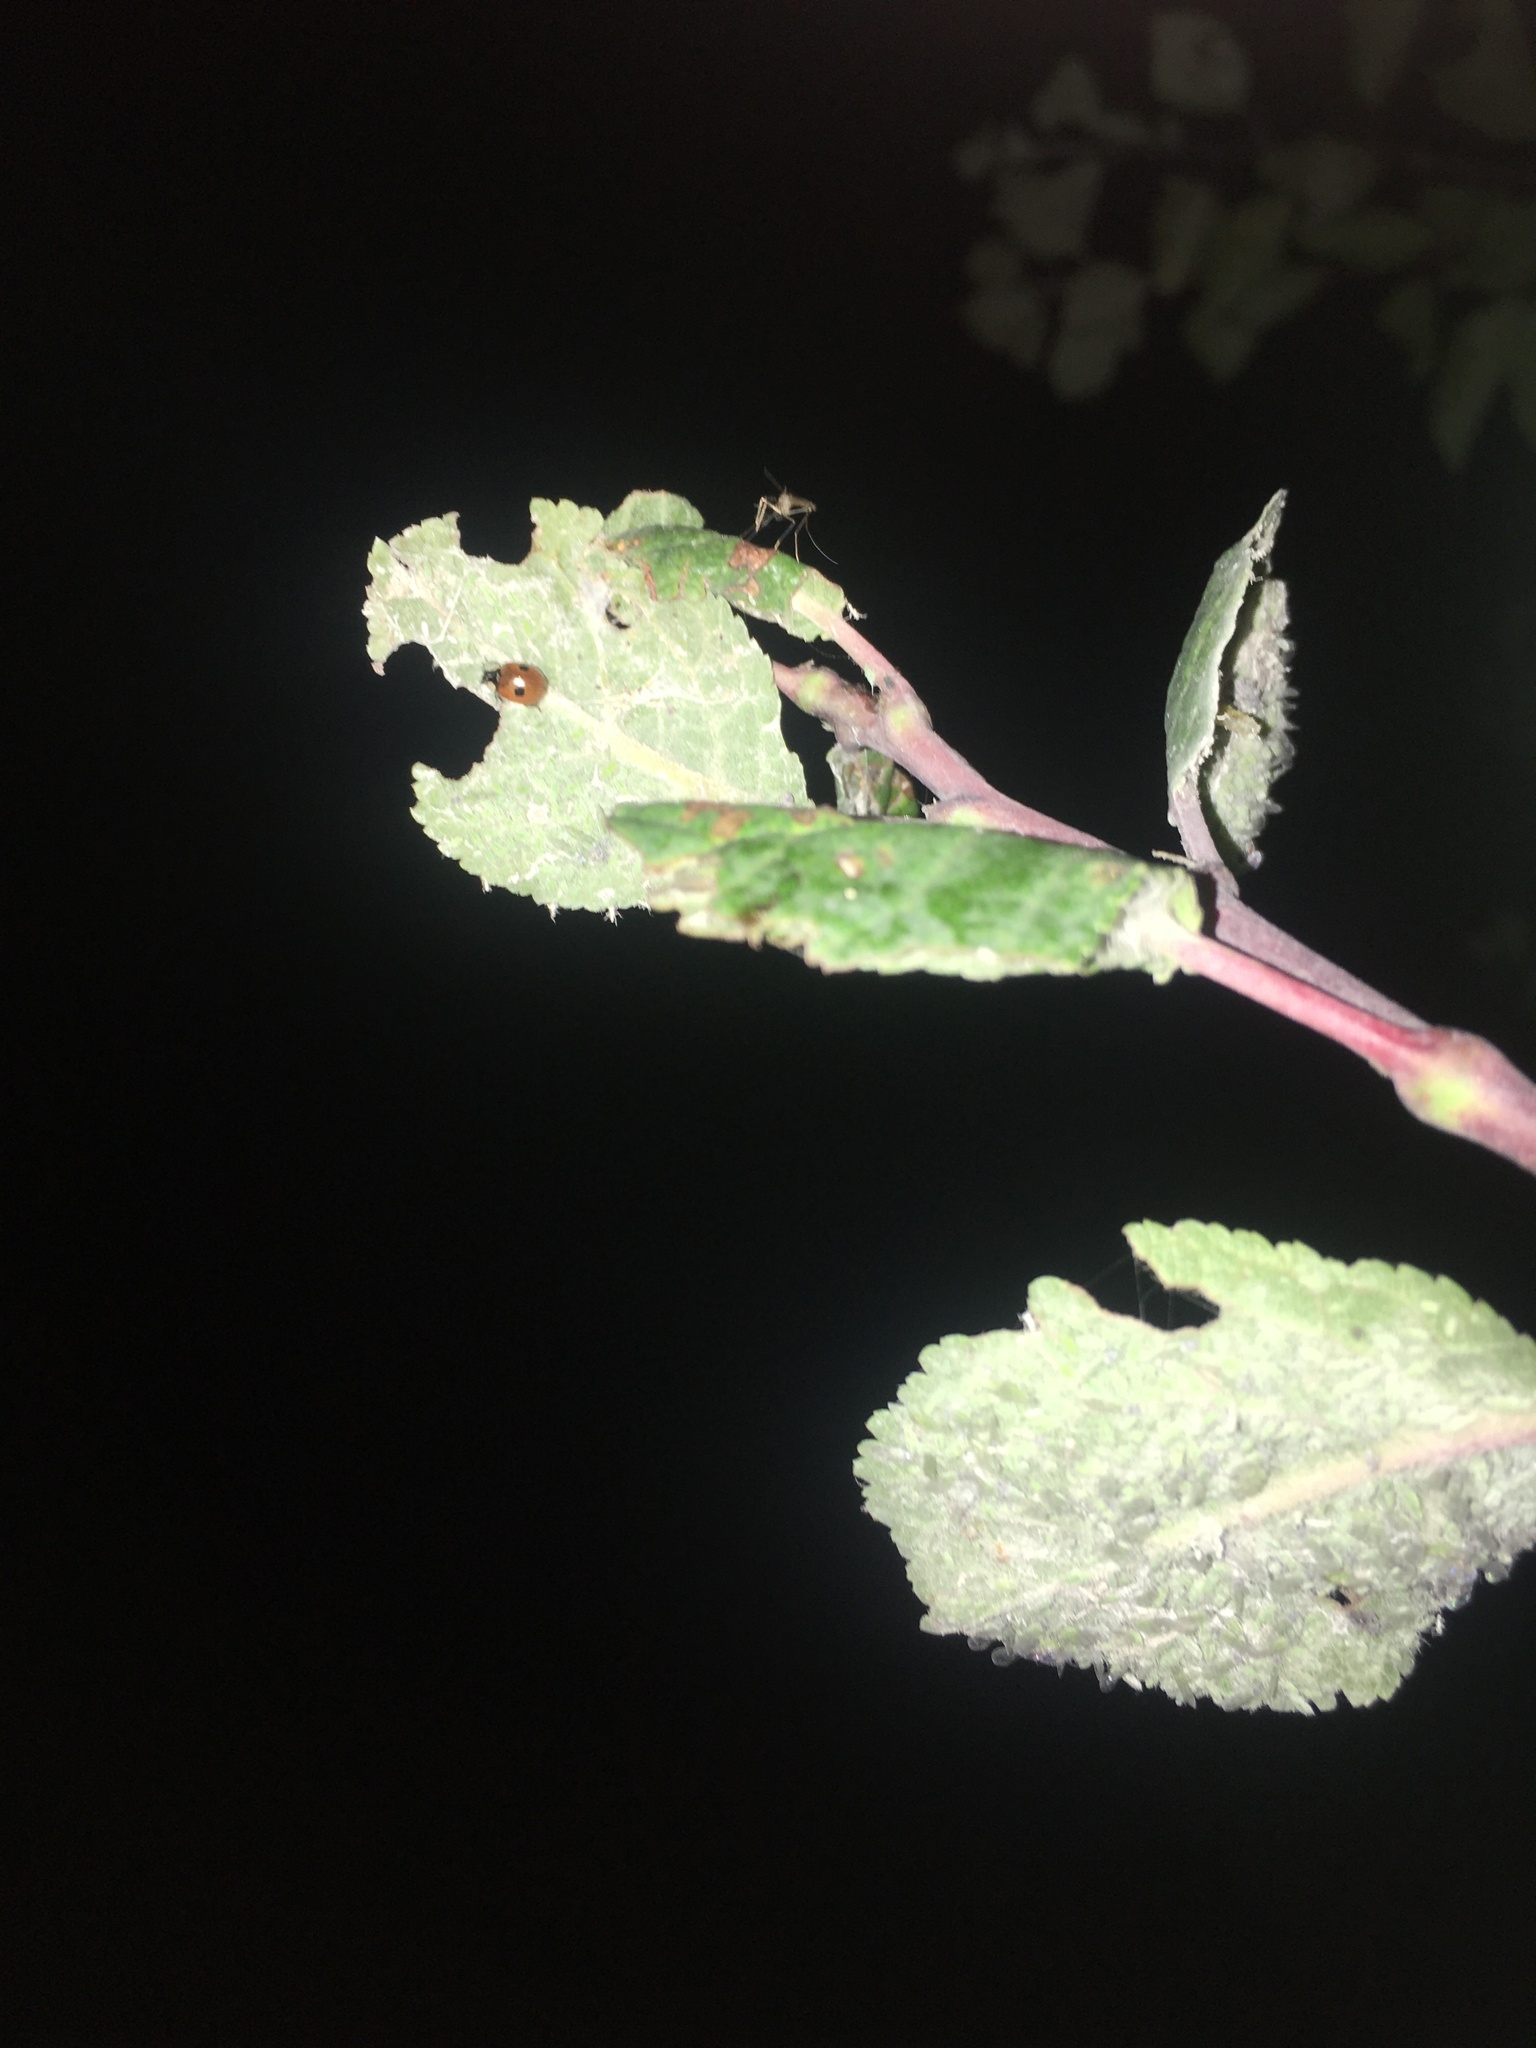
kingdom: Animalia
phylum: Arthropoda
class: Insecta
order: Coleoptera
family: Coccinellidae
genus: Adalia
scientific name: Adalia bipunctata
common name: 2-spot ladybird
